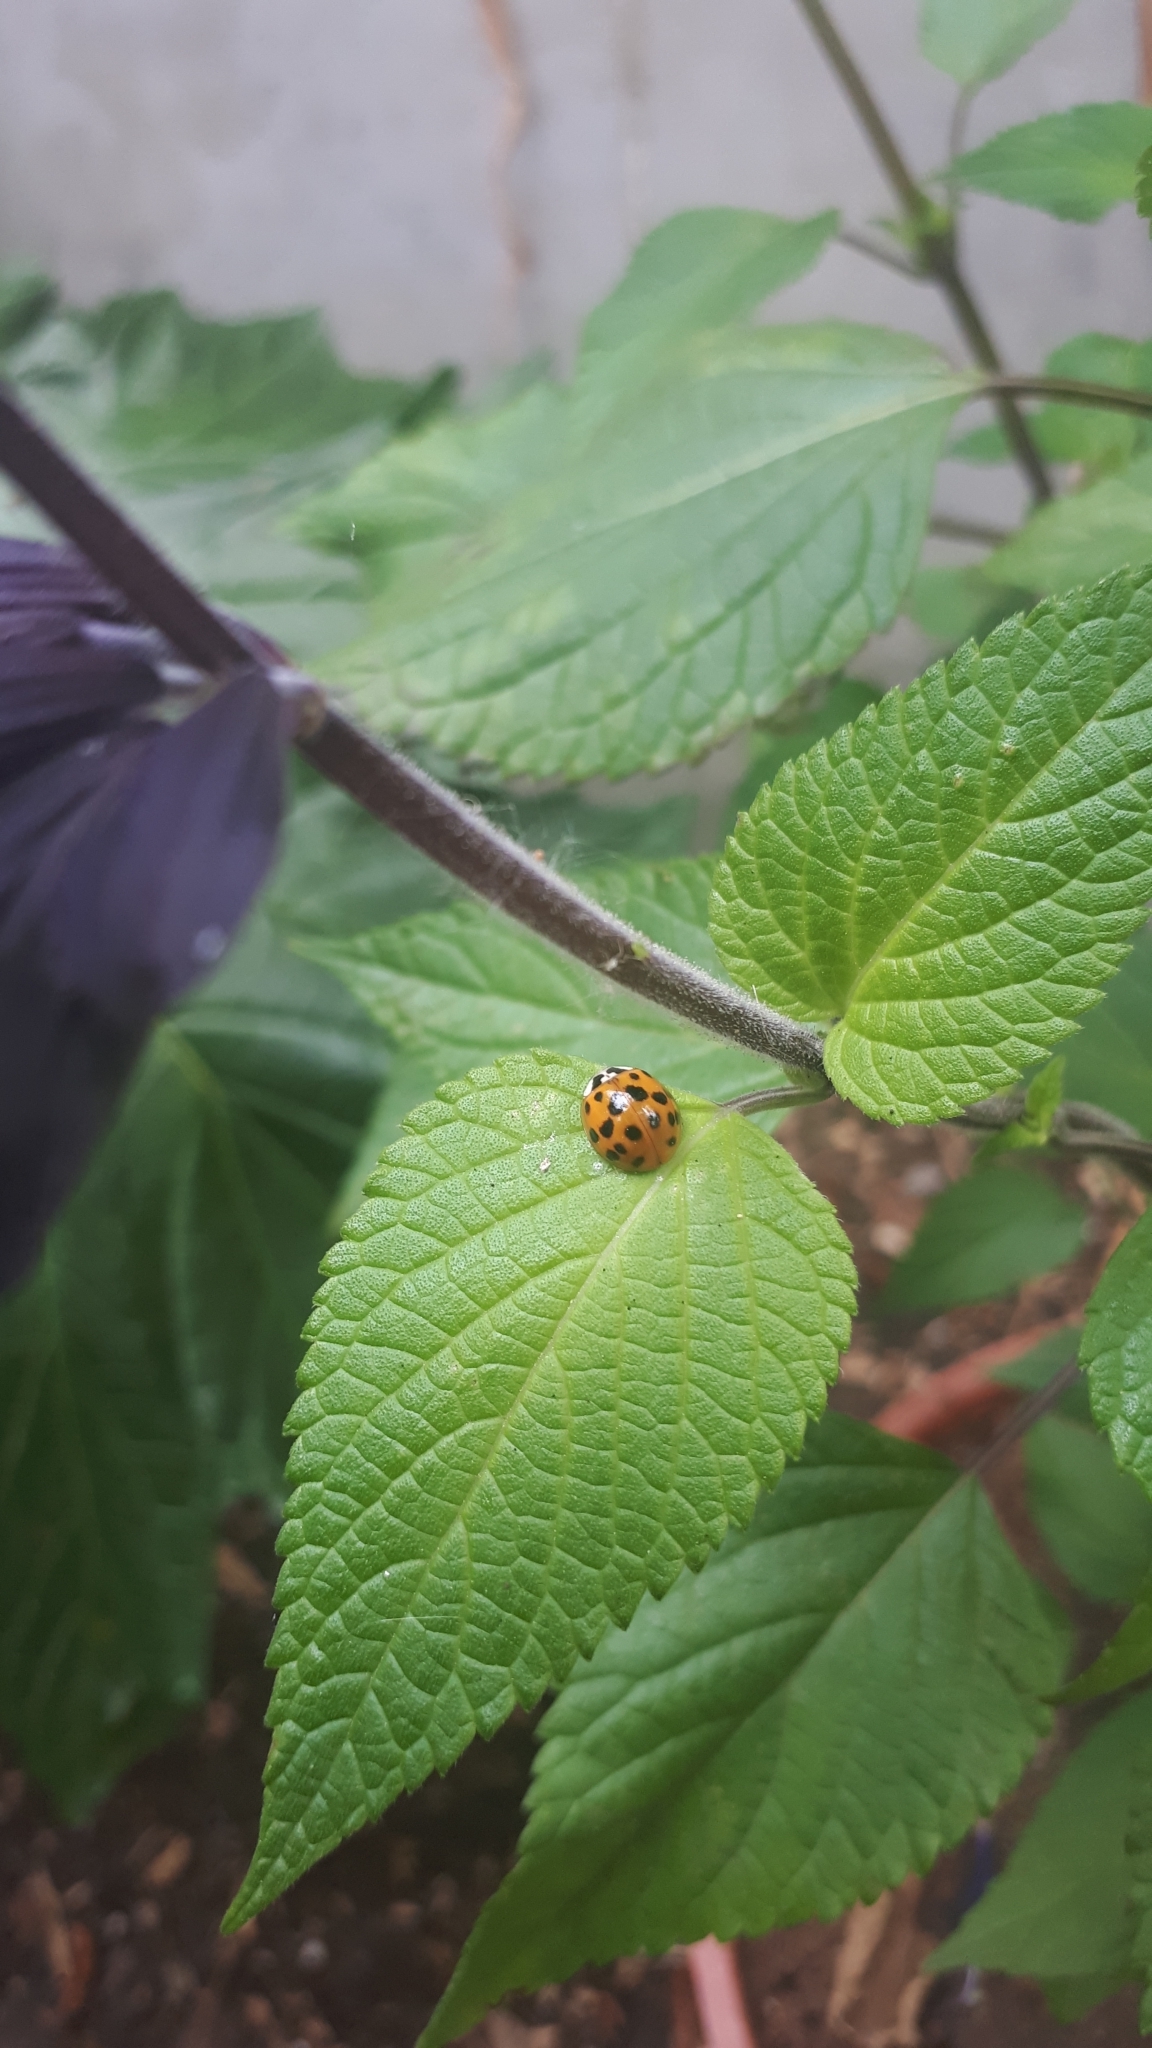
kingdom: Animalia
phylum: Arthropoda
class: Insecta
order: Coleoptera
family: Coccinellidae
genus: Harmonia
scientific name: Harmonia axyridis
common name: Harlequin ladybird
